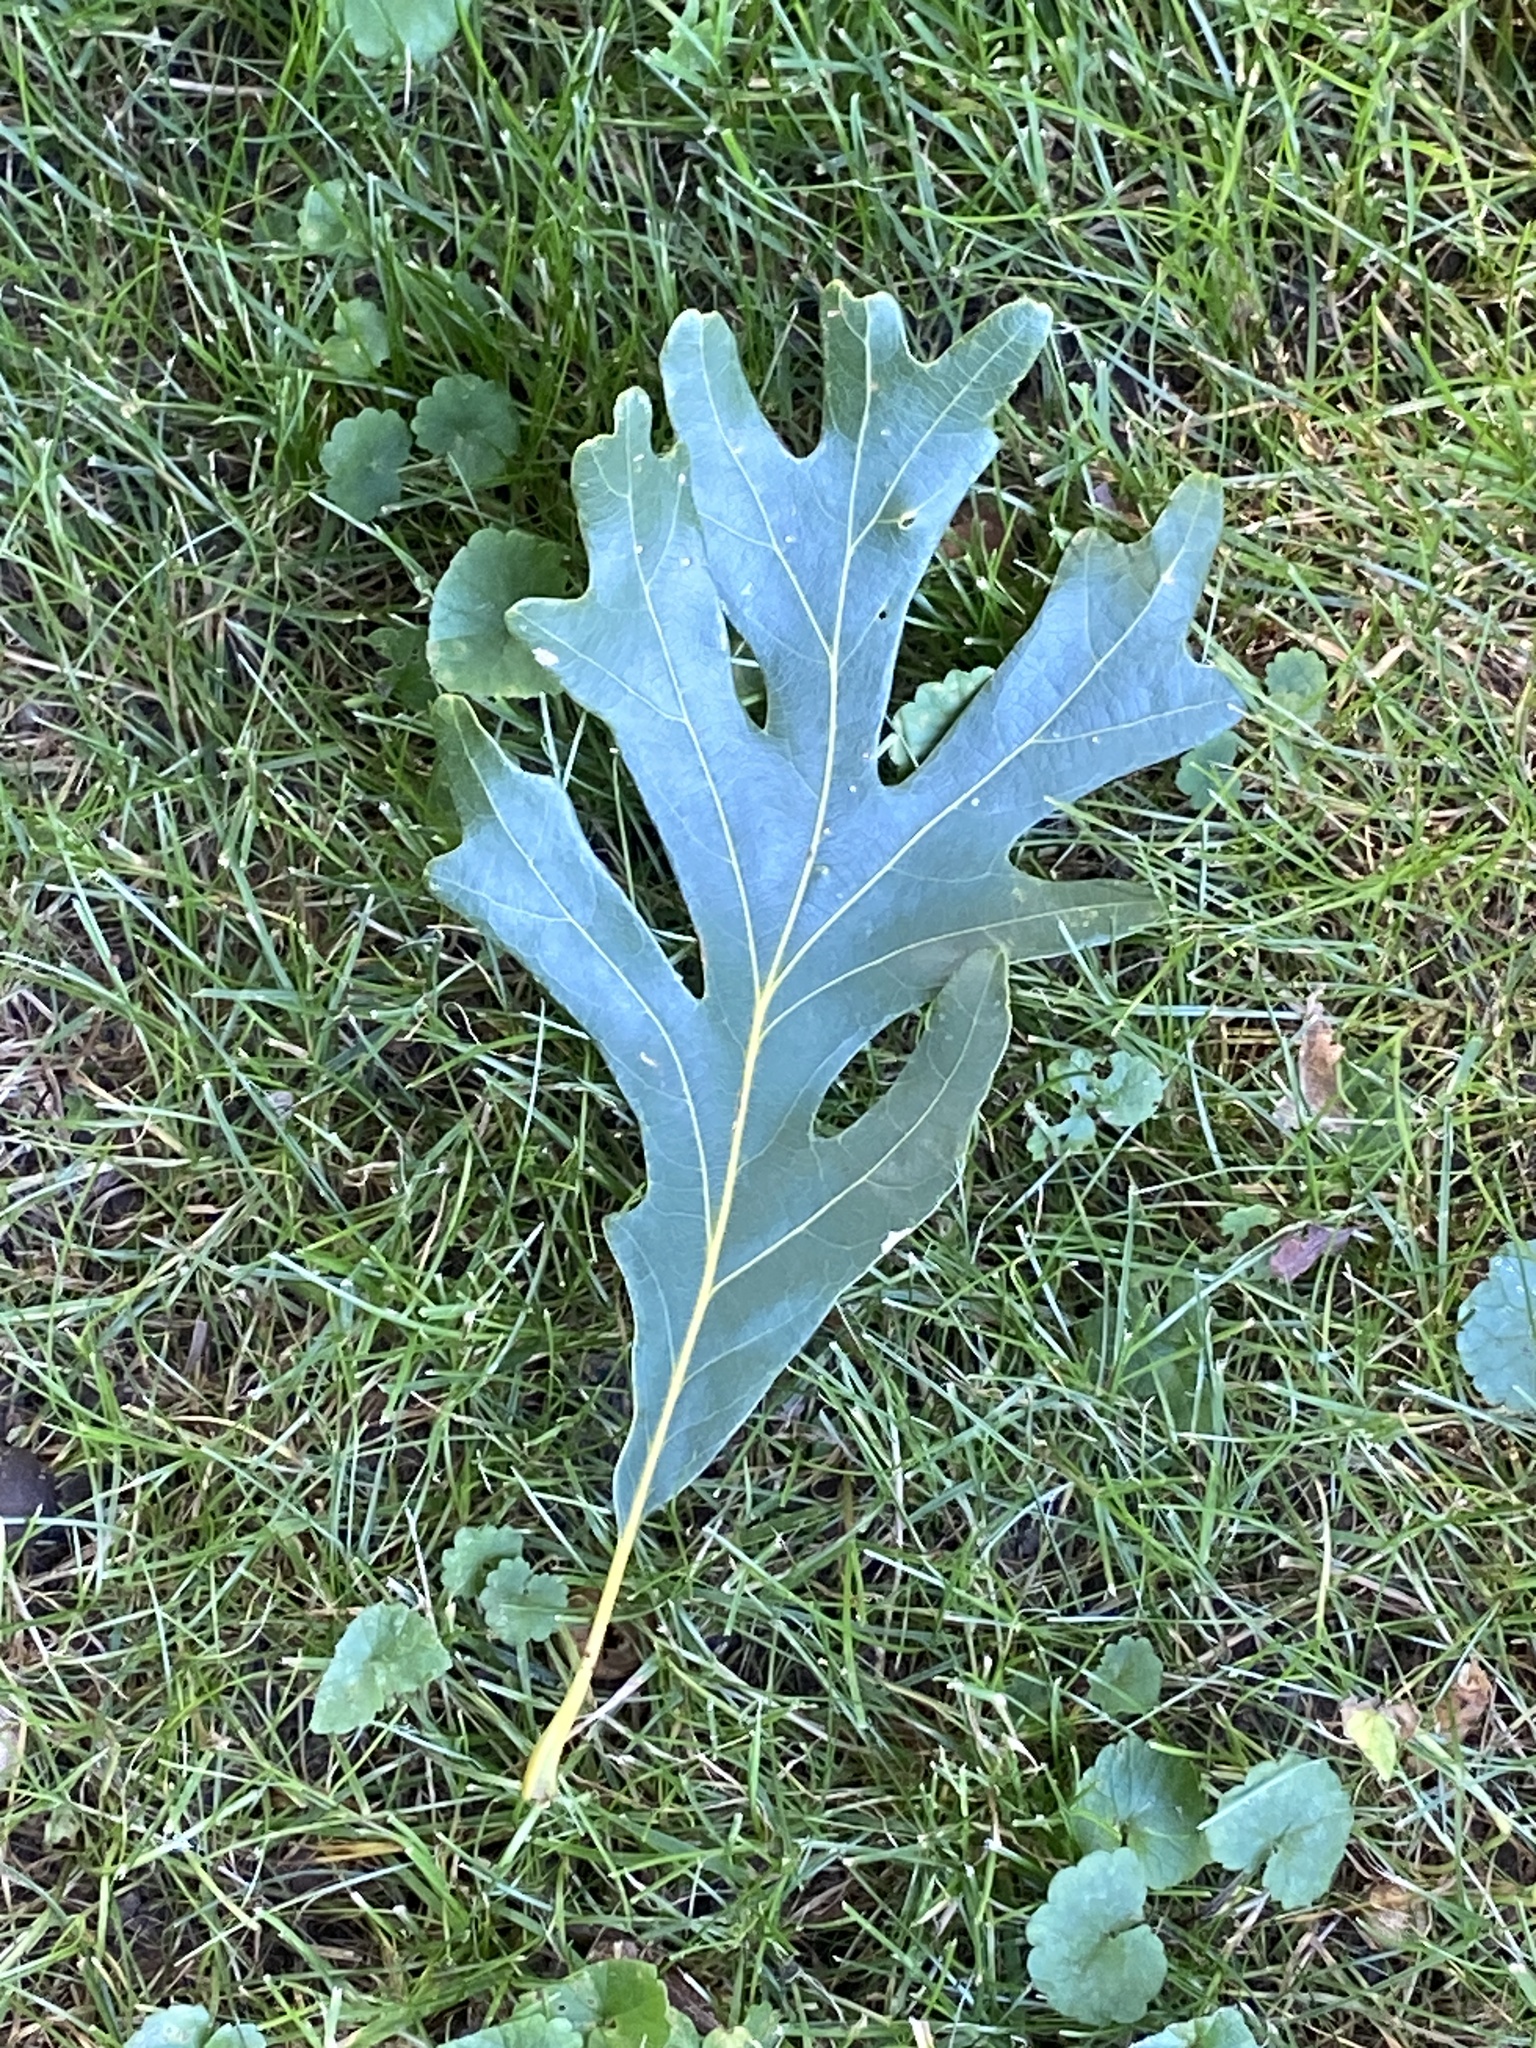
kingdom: Plantae
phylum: Tracheophyta
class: Magnoliopsida
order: Fagales
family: Fagaceae
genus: Quercus
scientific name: Quercus alba
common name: White oak
